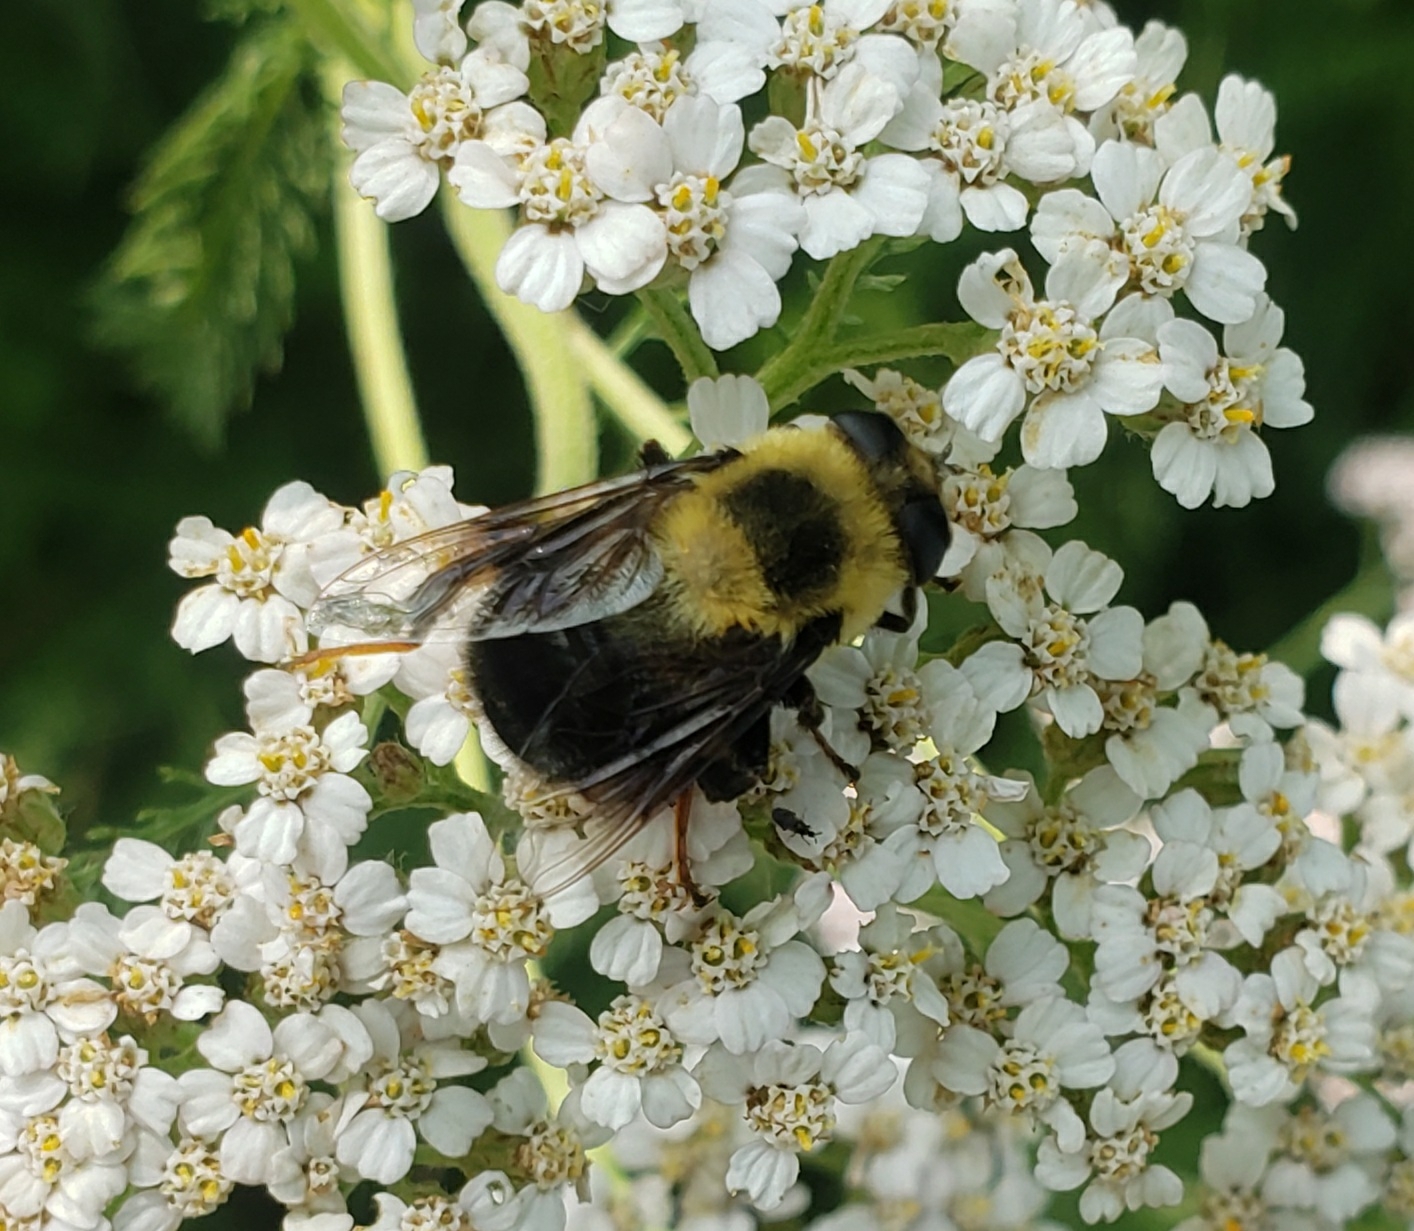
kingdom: Animalia
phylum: Arthropoda
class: Insecta
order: Diptera
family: Syrphidae
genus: Eristalis
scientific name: Eristalis flavipes
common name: Orange-legged drone fly
